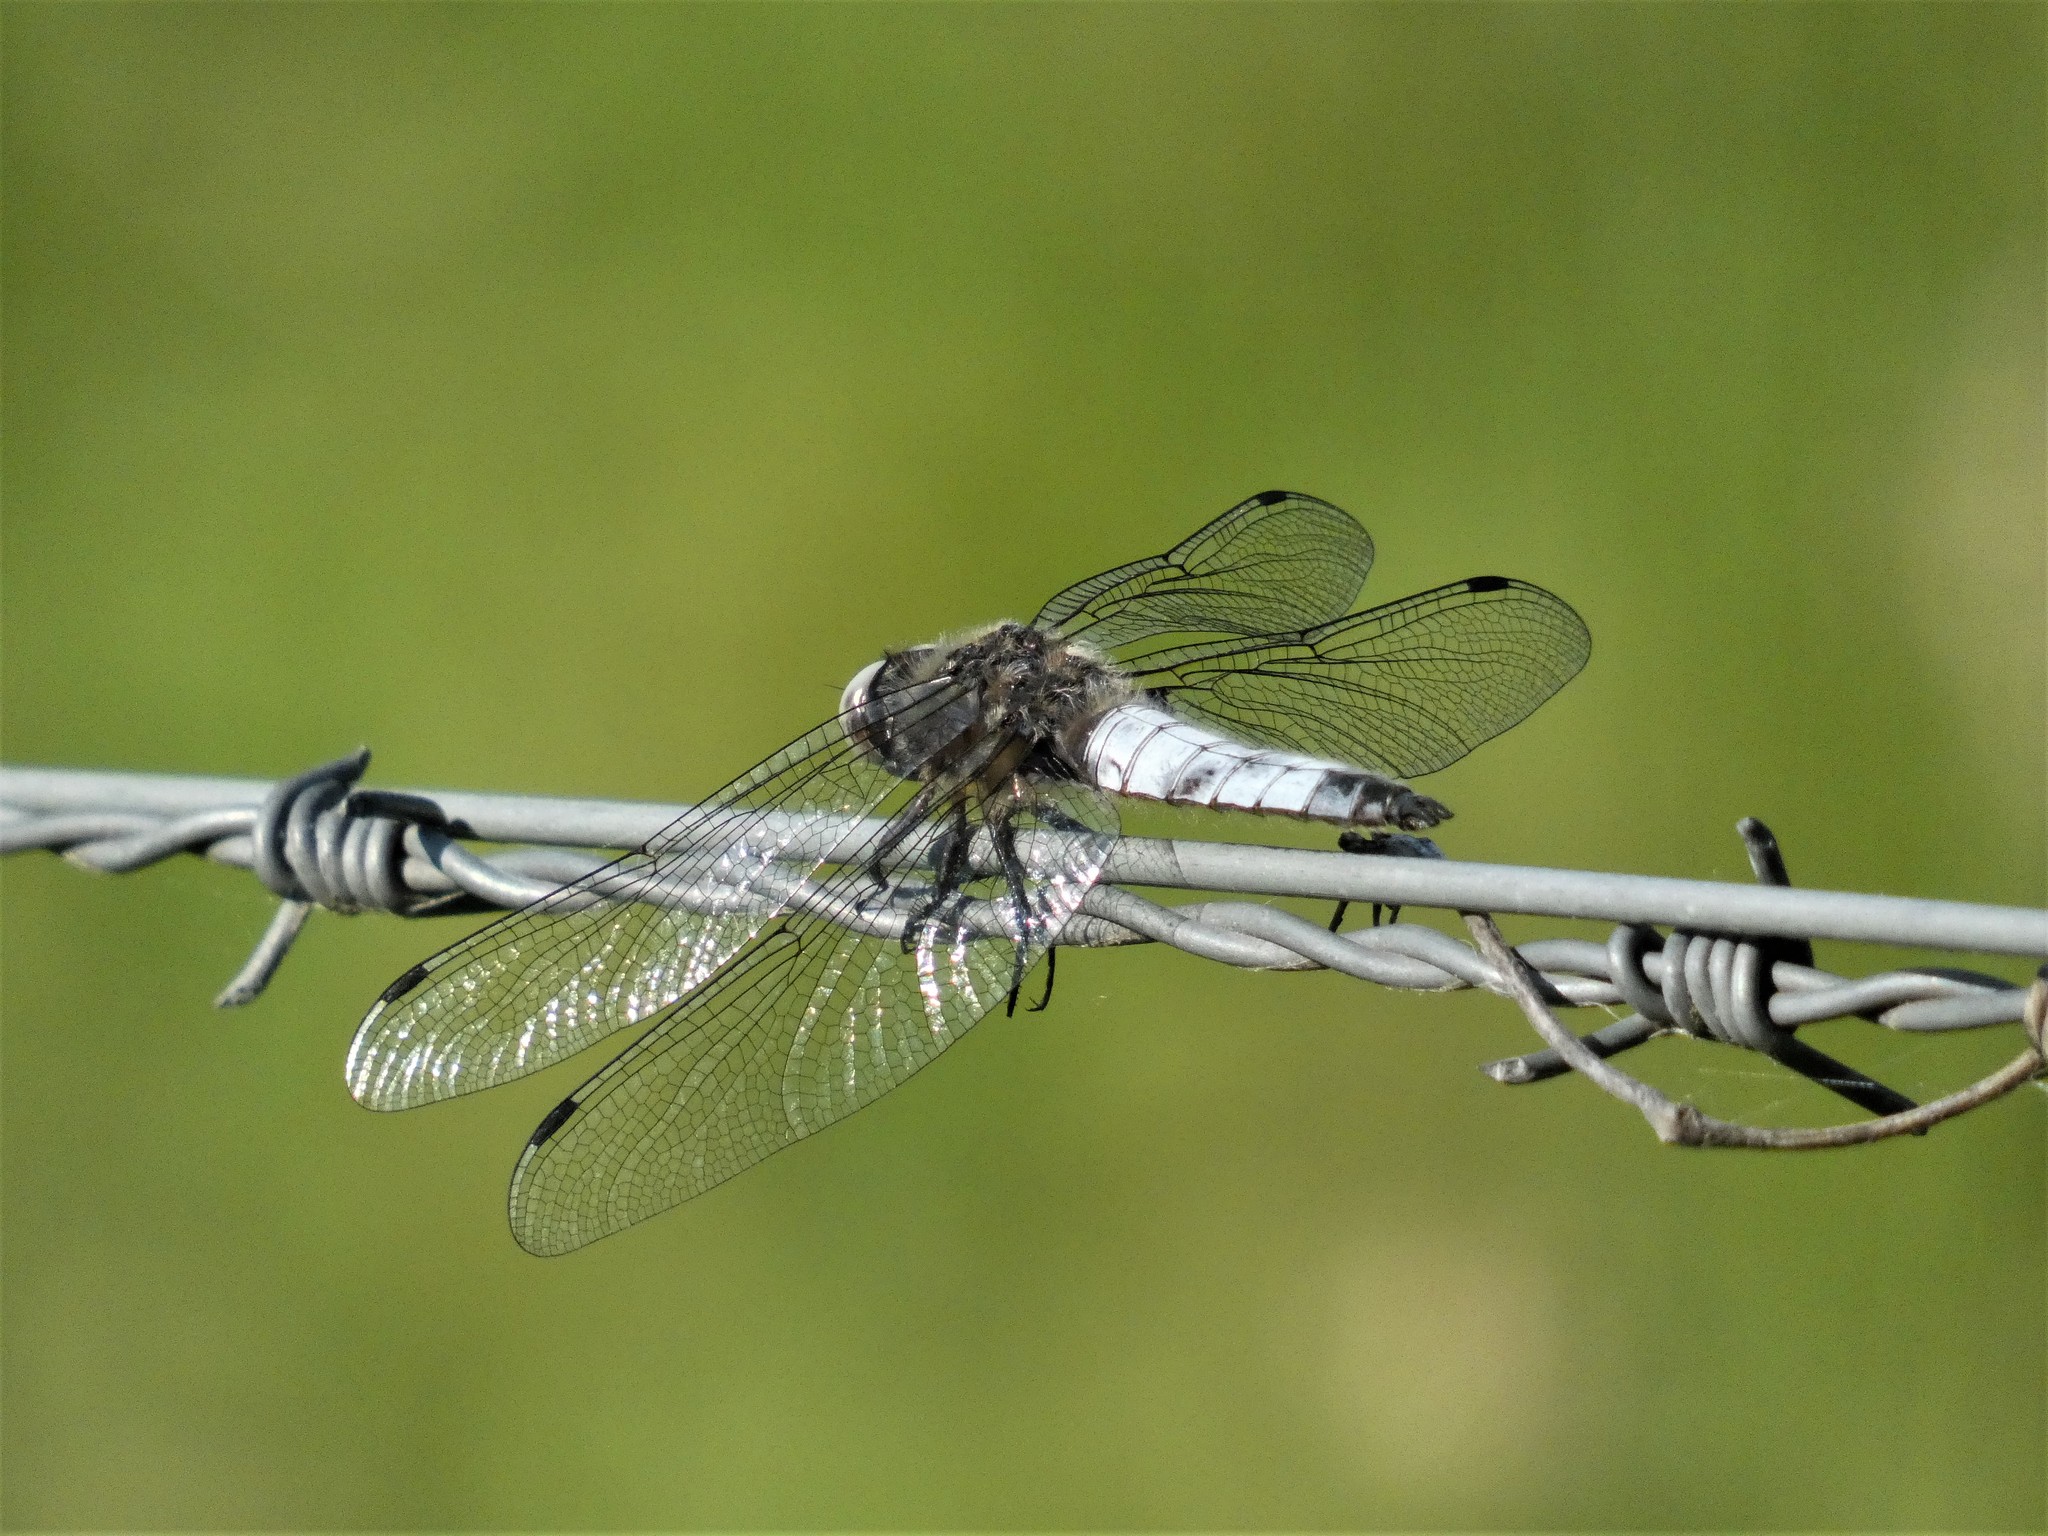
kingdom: Animalia
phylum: Arthropoda
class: Insecta
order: Odonata
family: Libellulidae
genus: Libellula
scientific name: Libellula fulva
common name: Blue chaser
